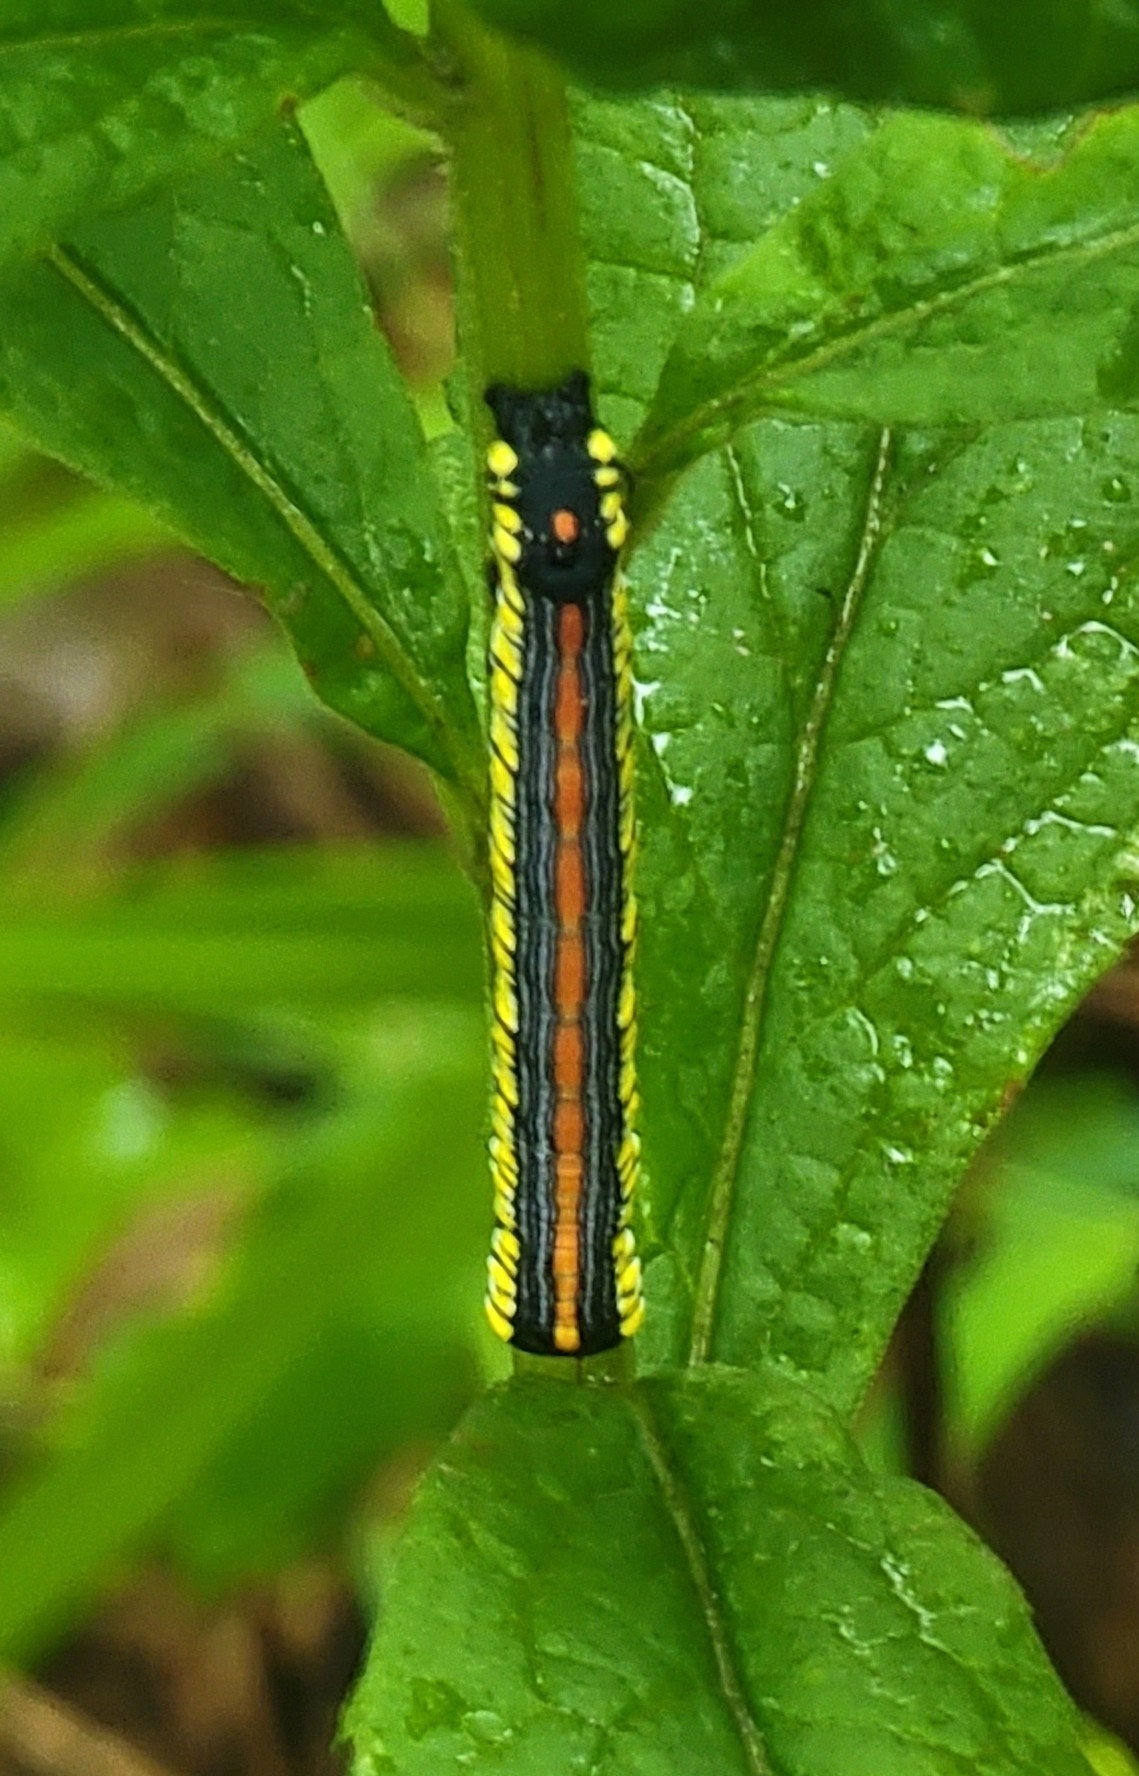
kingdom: Animalia
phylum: Arthropoda
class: Insecta
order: Lepidoptera
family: Noctuidae
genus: Cucullia
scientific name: Cucullia convexipennis
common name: Brown-hooded owlet
